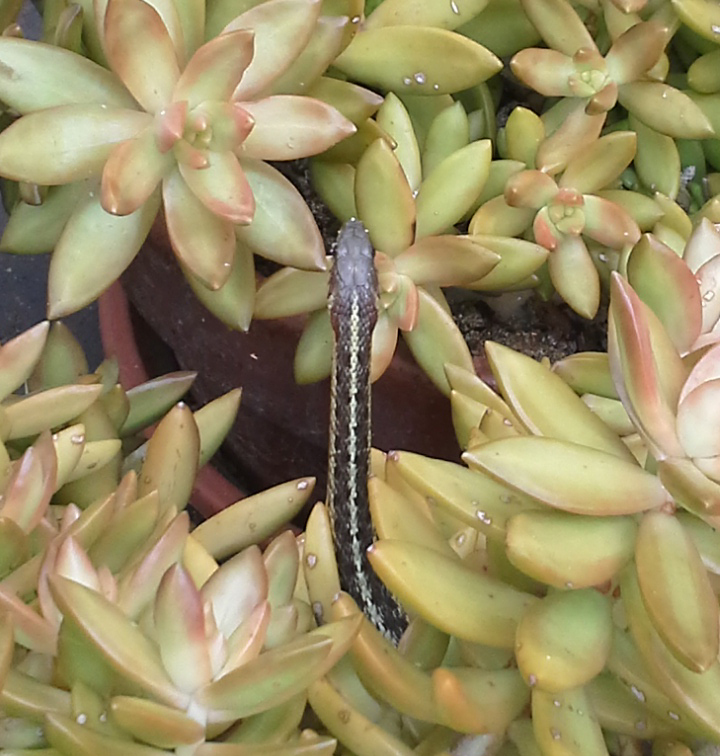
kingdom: Animalia
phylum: Chordata
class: Squamata
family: Colubridae
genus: Thamnophis
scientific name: Thamnophis sirtalis
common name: Common garter snake
